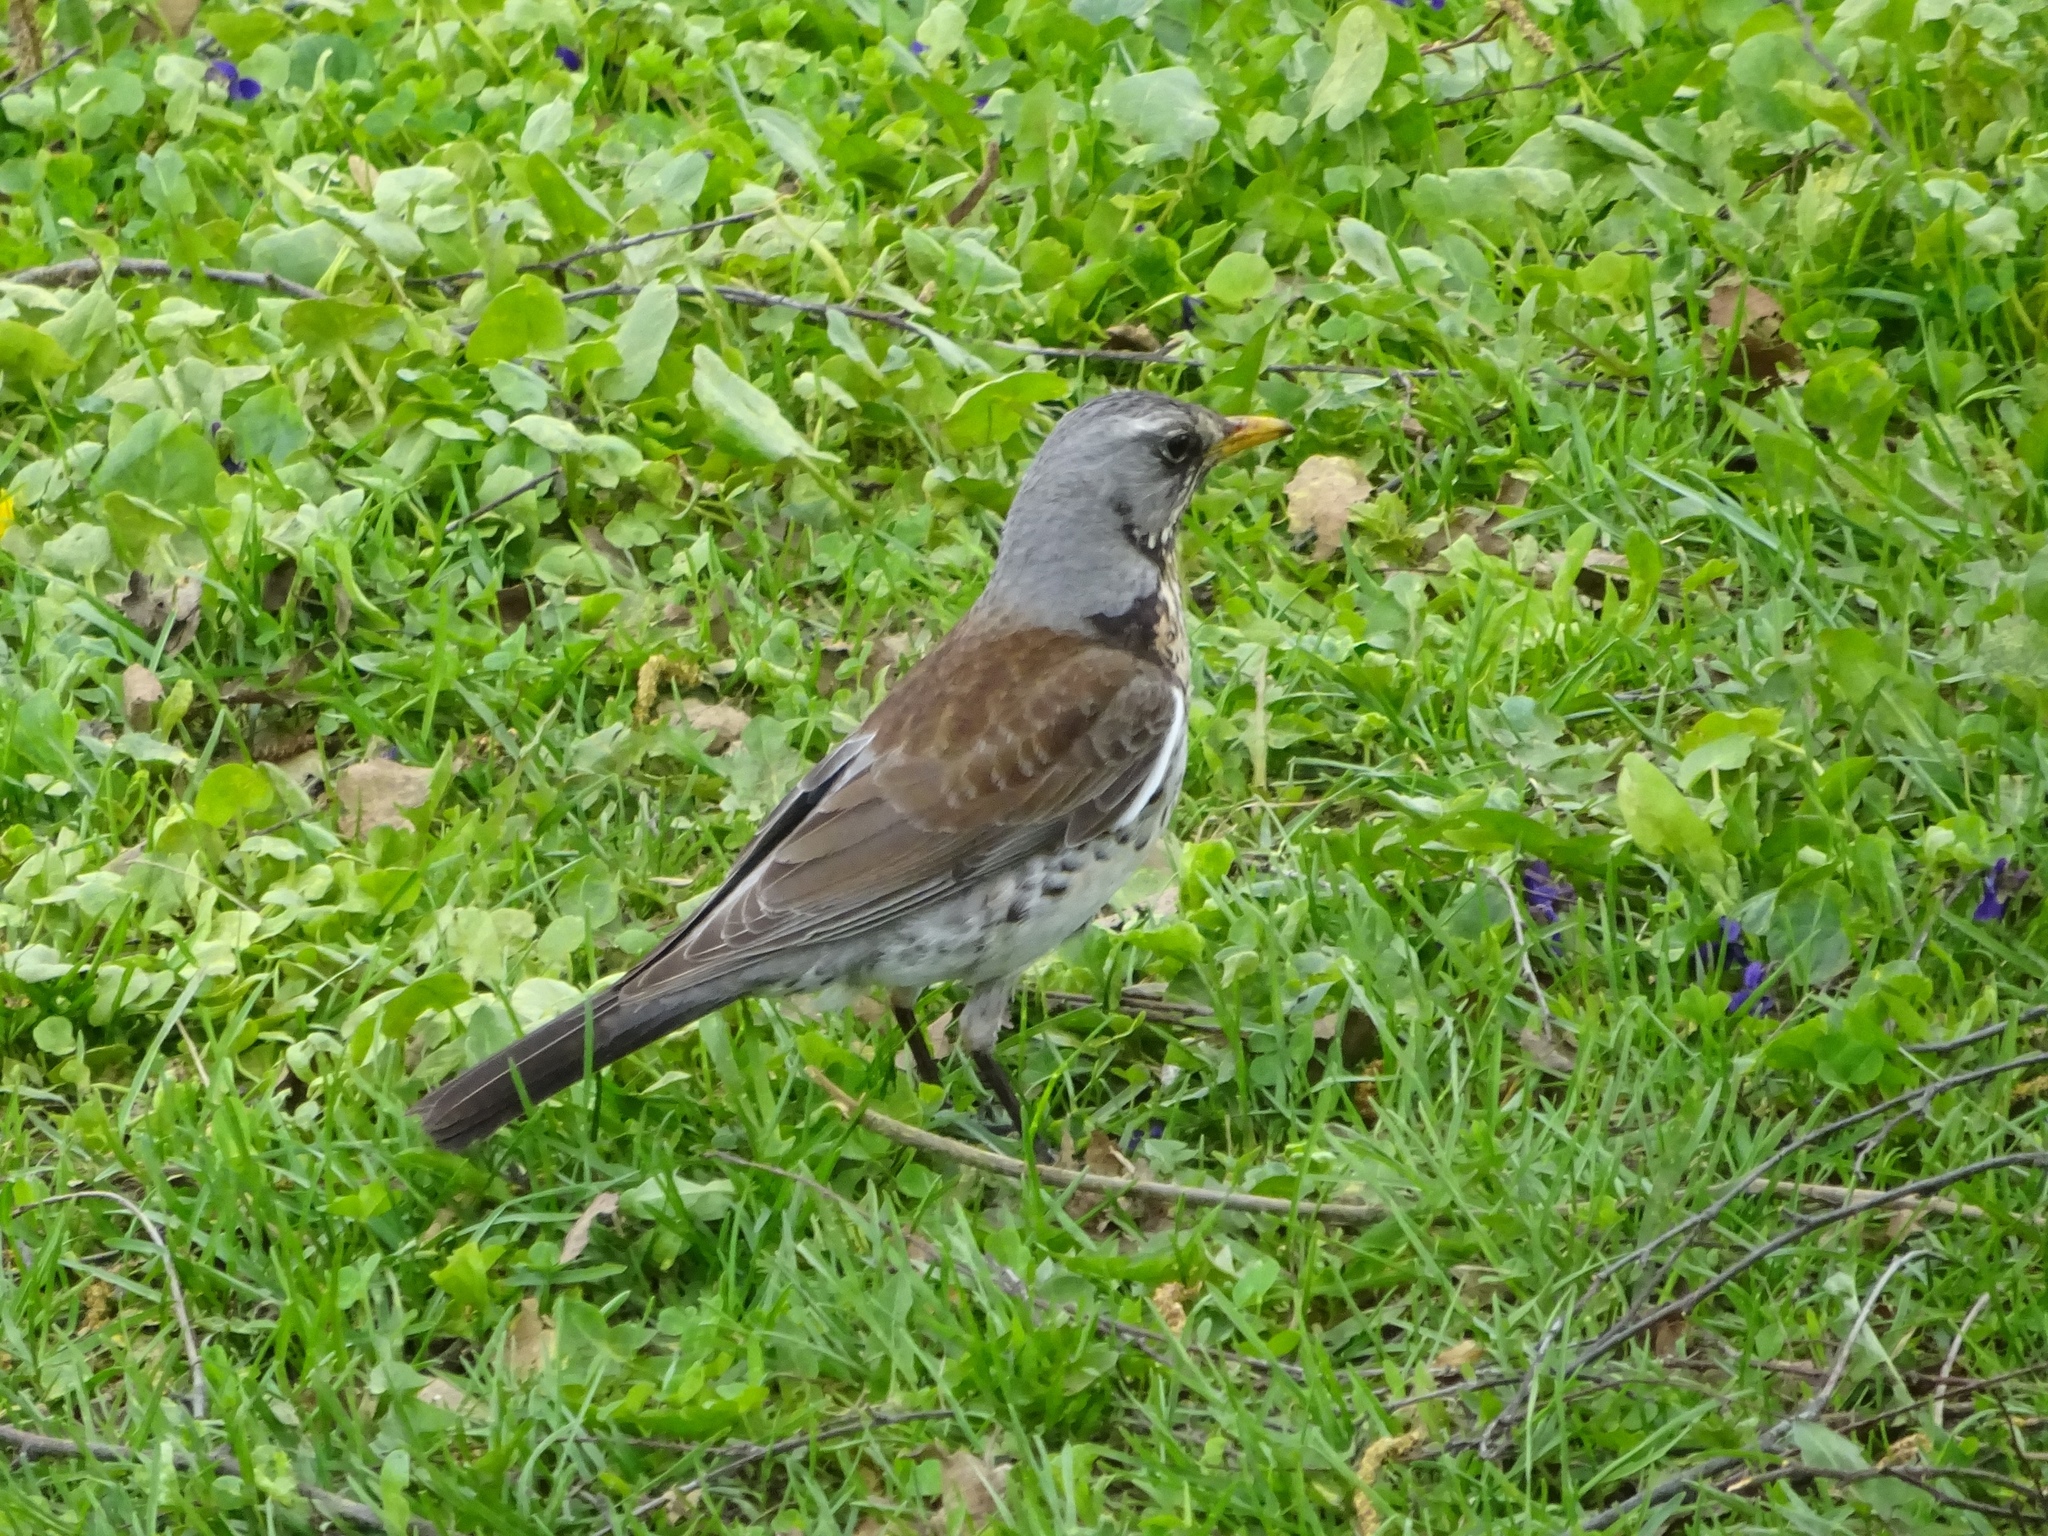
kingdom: Animalia
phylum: Chordata
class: Aves
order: Passeriformes
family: Turdidae
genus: Turdus
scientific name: Turdus pilaris
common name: Fieldfare
